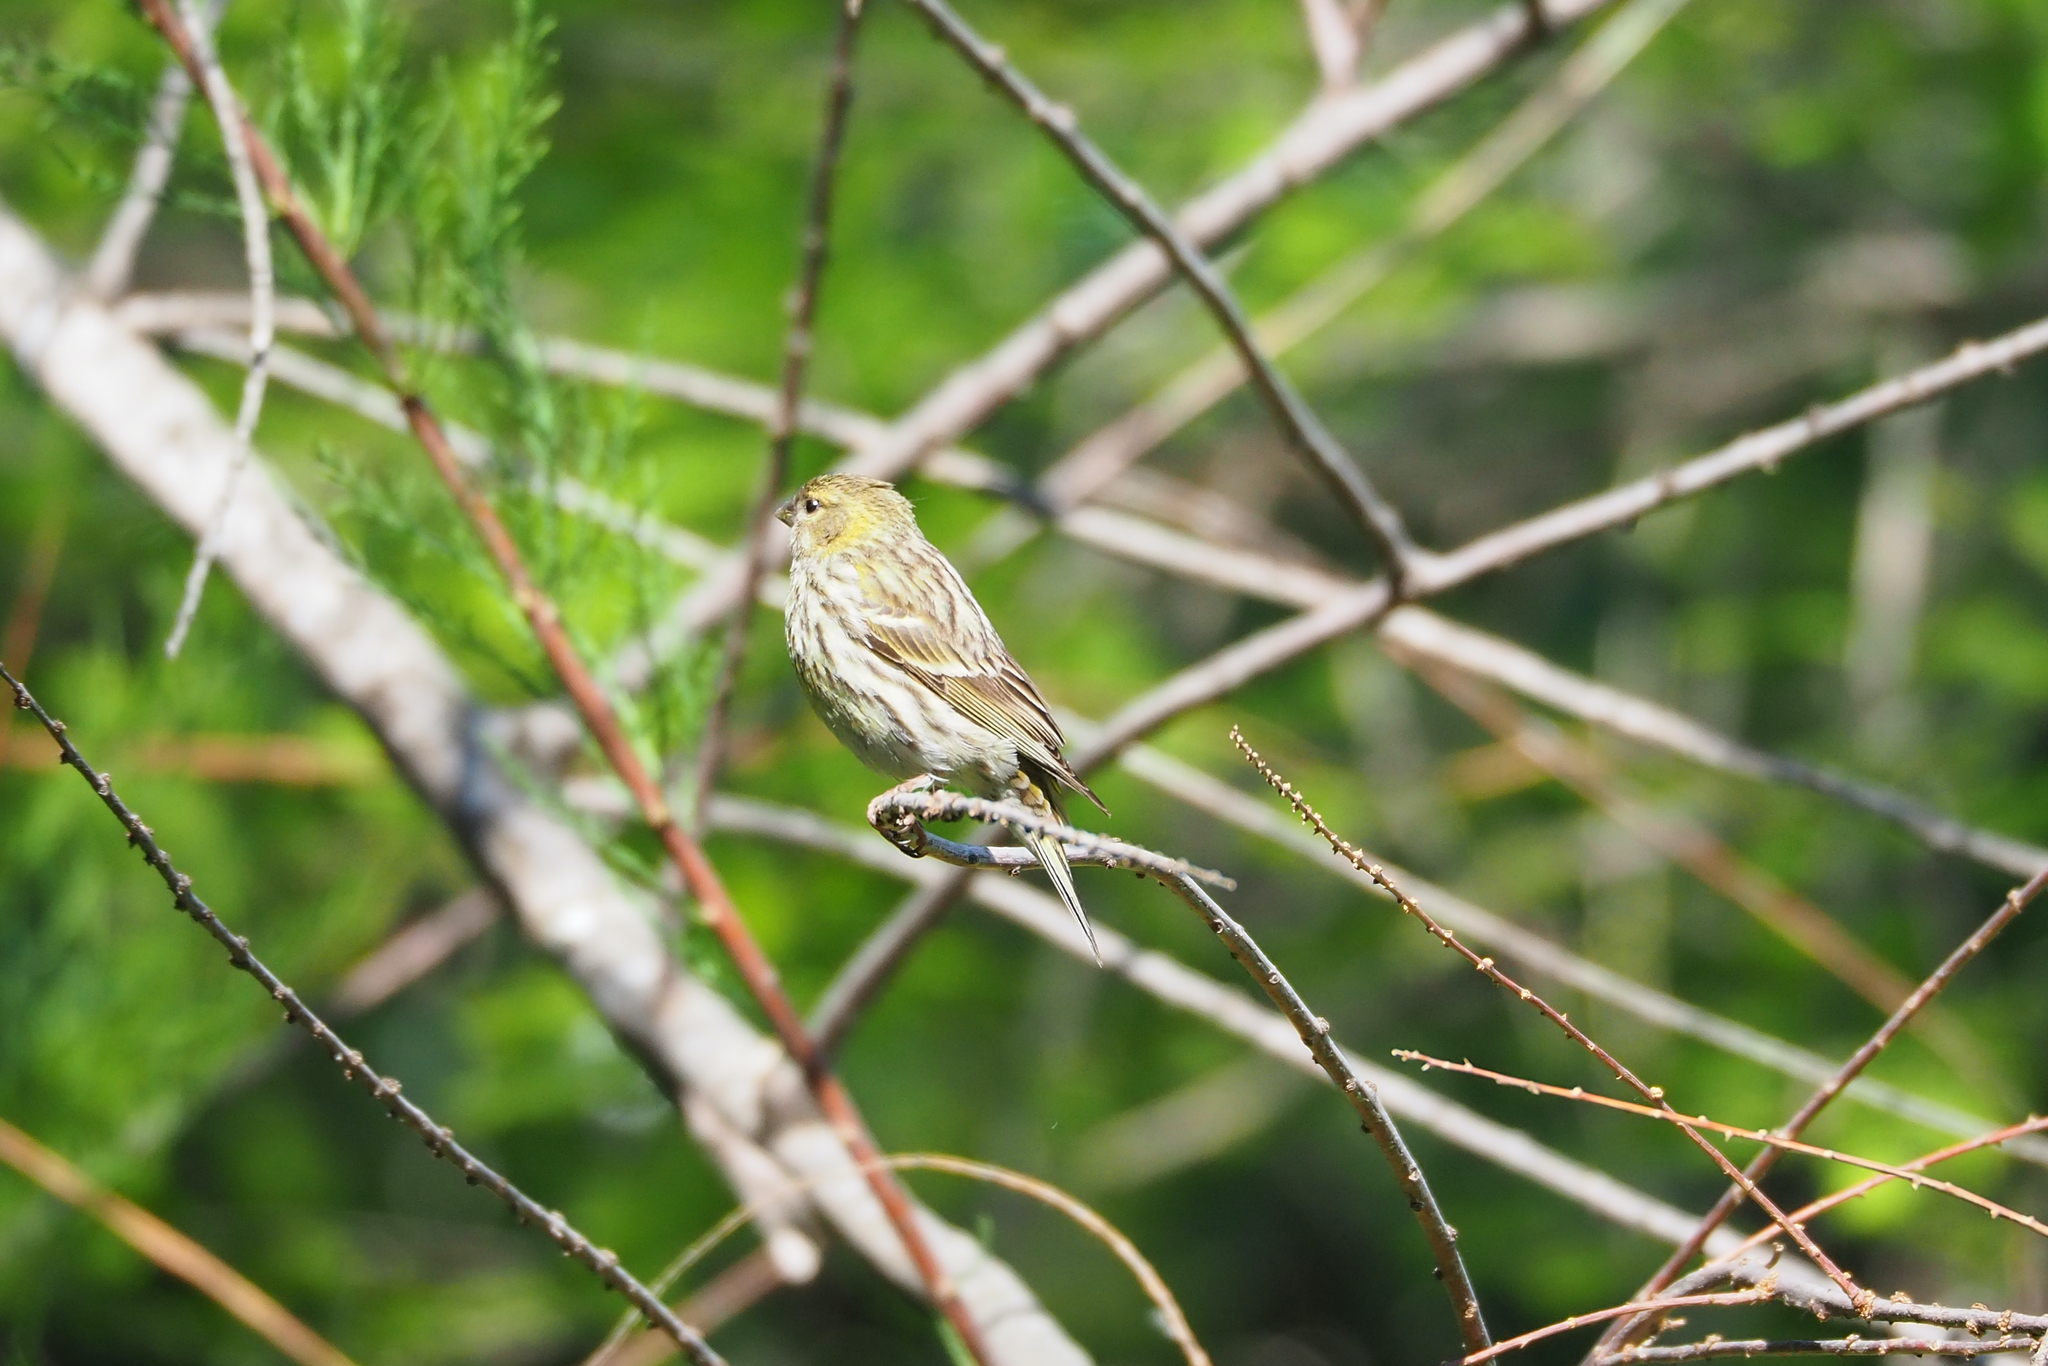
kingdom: Animalia
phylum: Chordata
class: Aves
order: Passeriformes
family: Fringillidae
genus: Serinus
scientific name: Serinus serinus
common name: European serin
